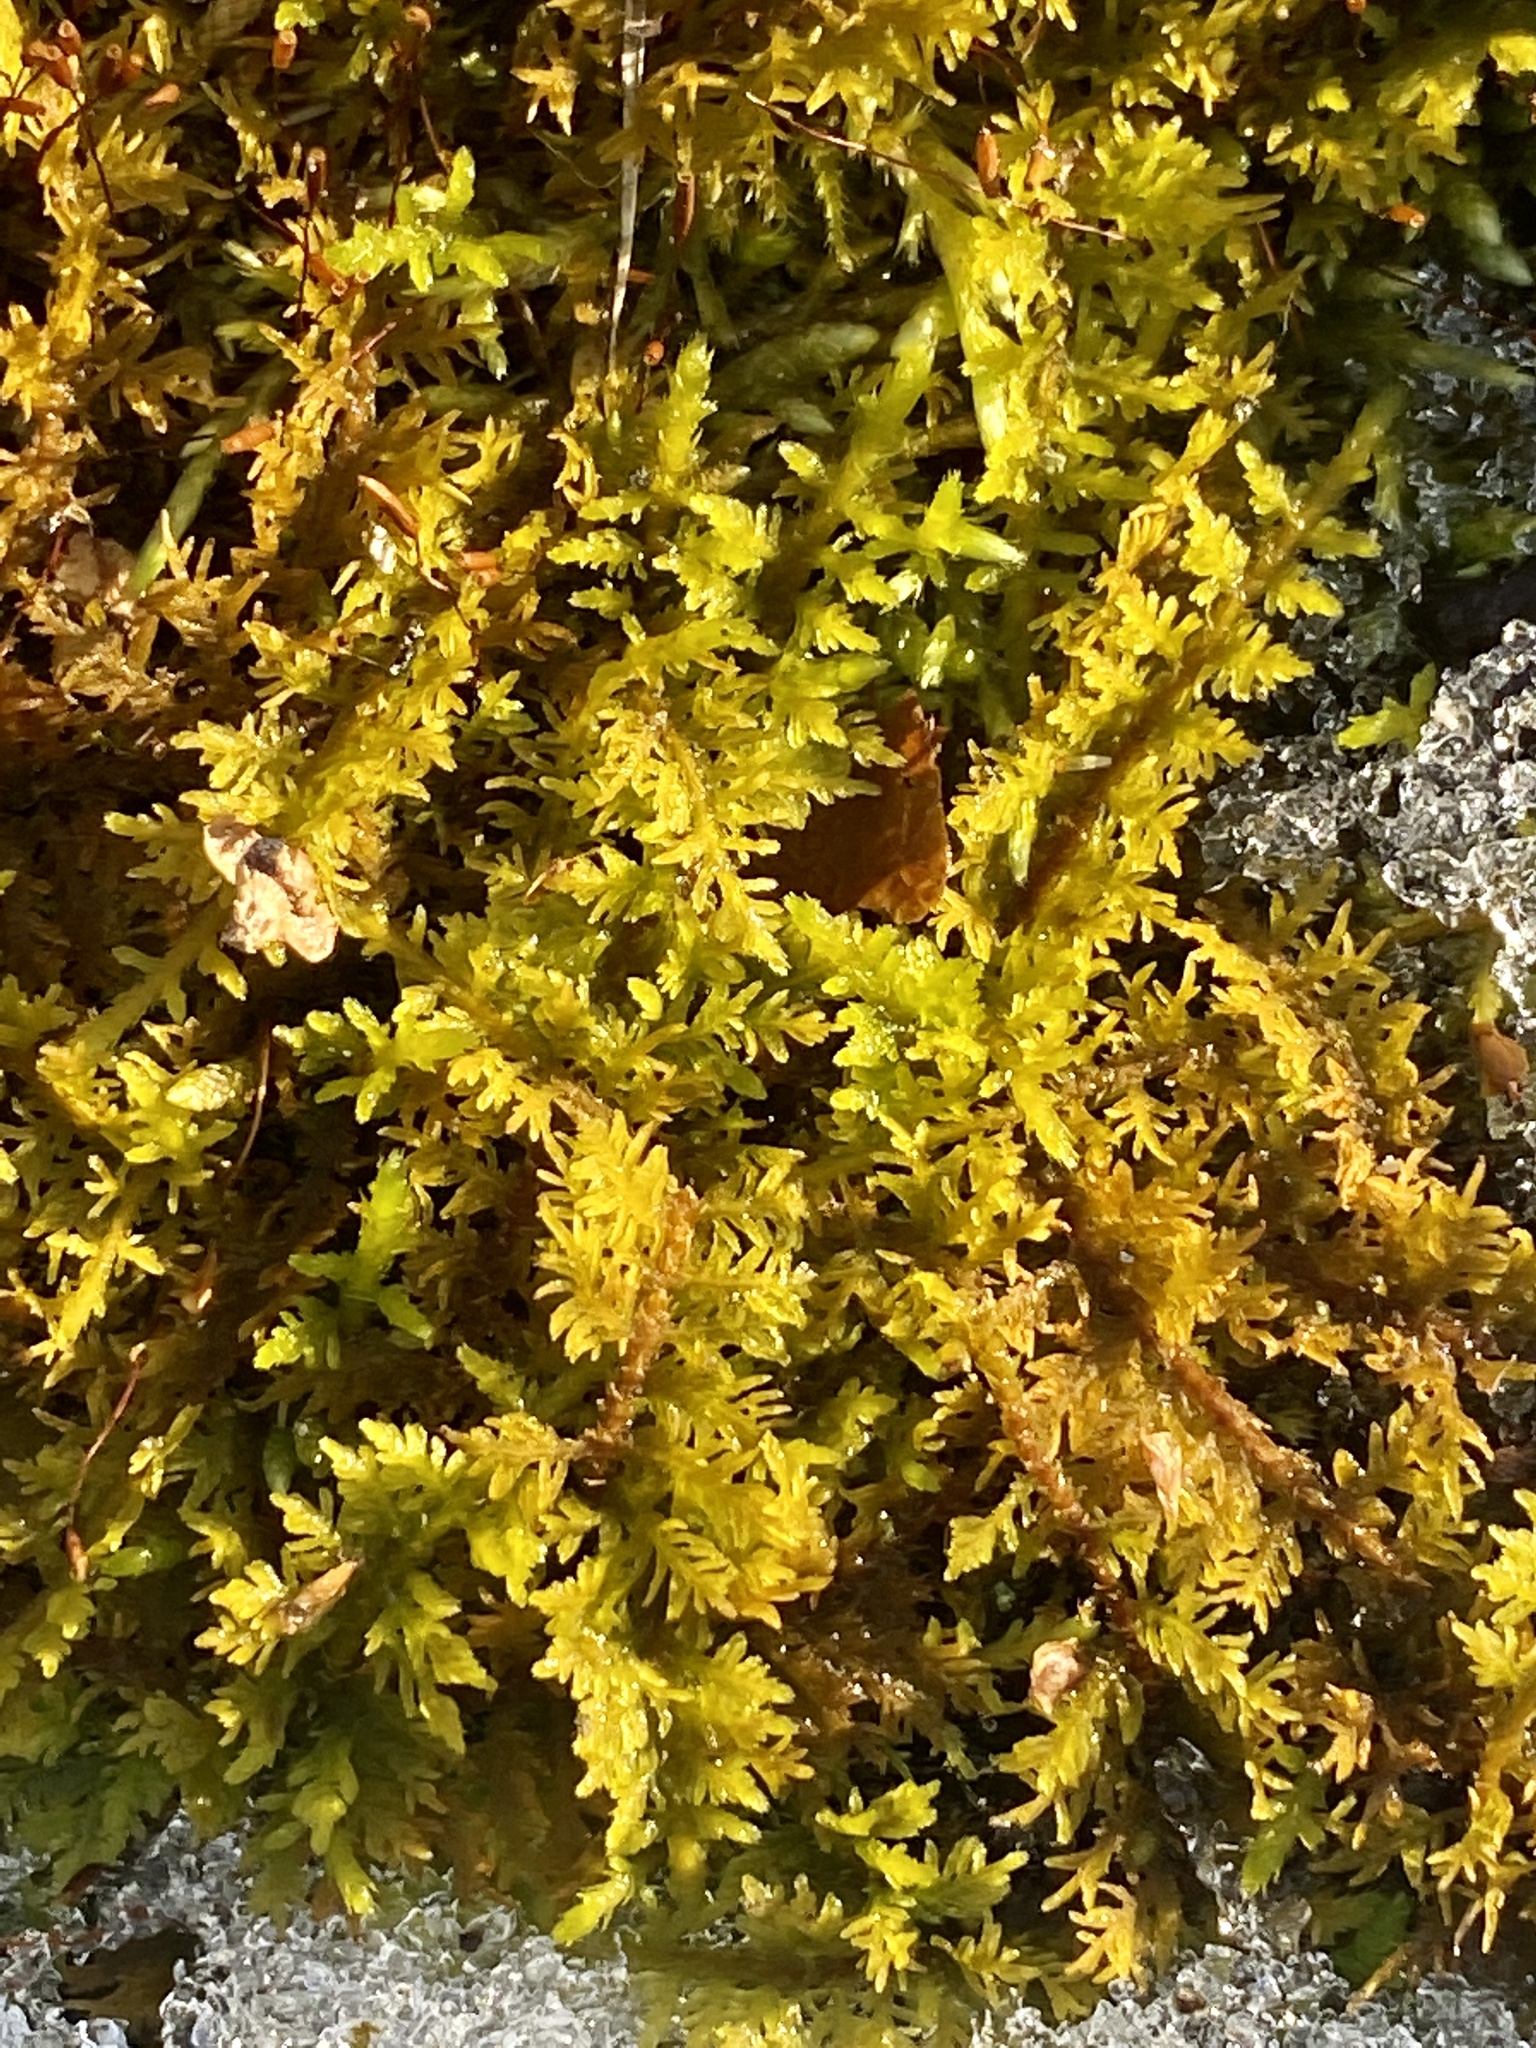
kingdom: Plantae
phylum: Bryophyta
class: Bryopsida
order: Hypnales
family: Thuidiaceae
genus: Thuidium
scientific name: Thuidium delicatulum
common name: Delicate fern moss
